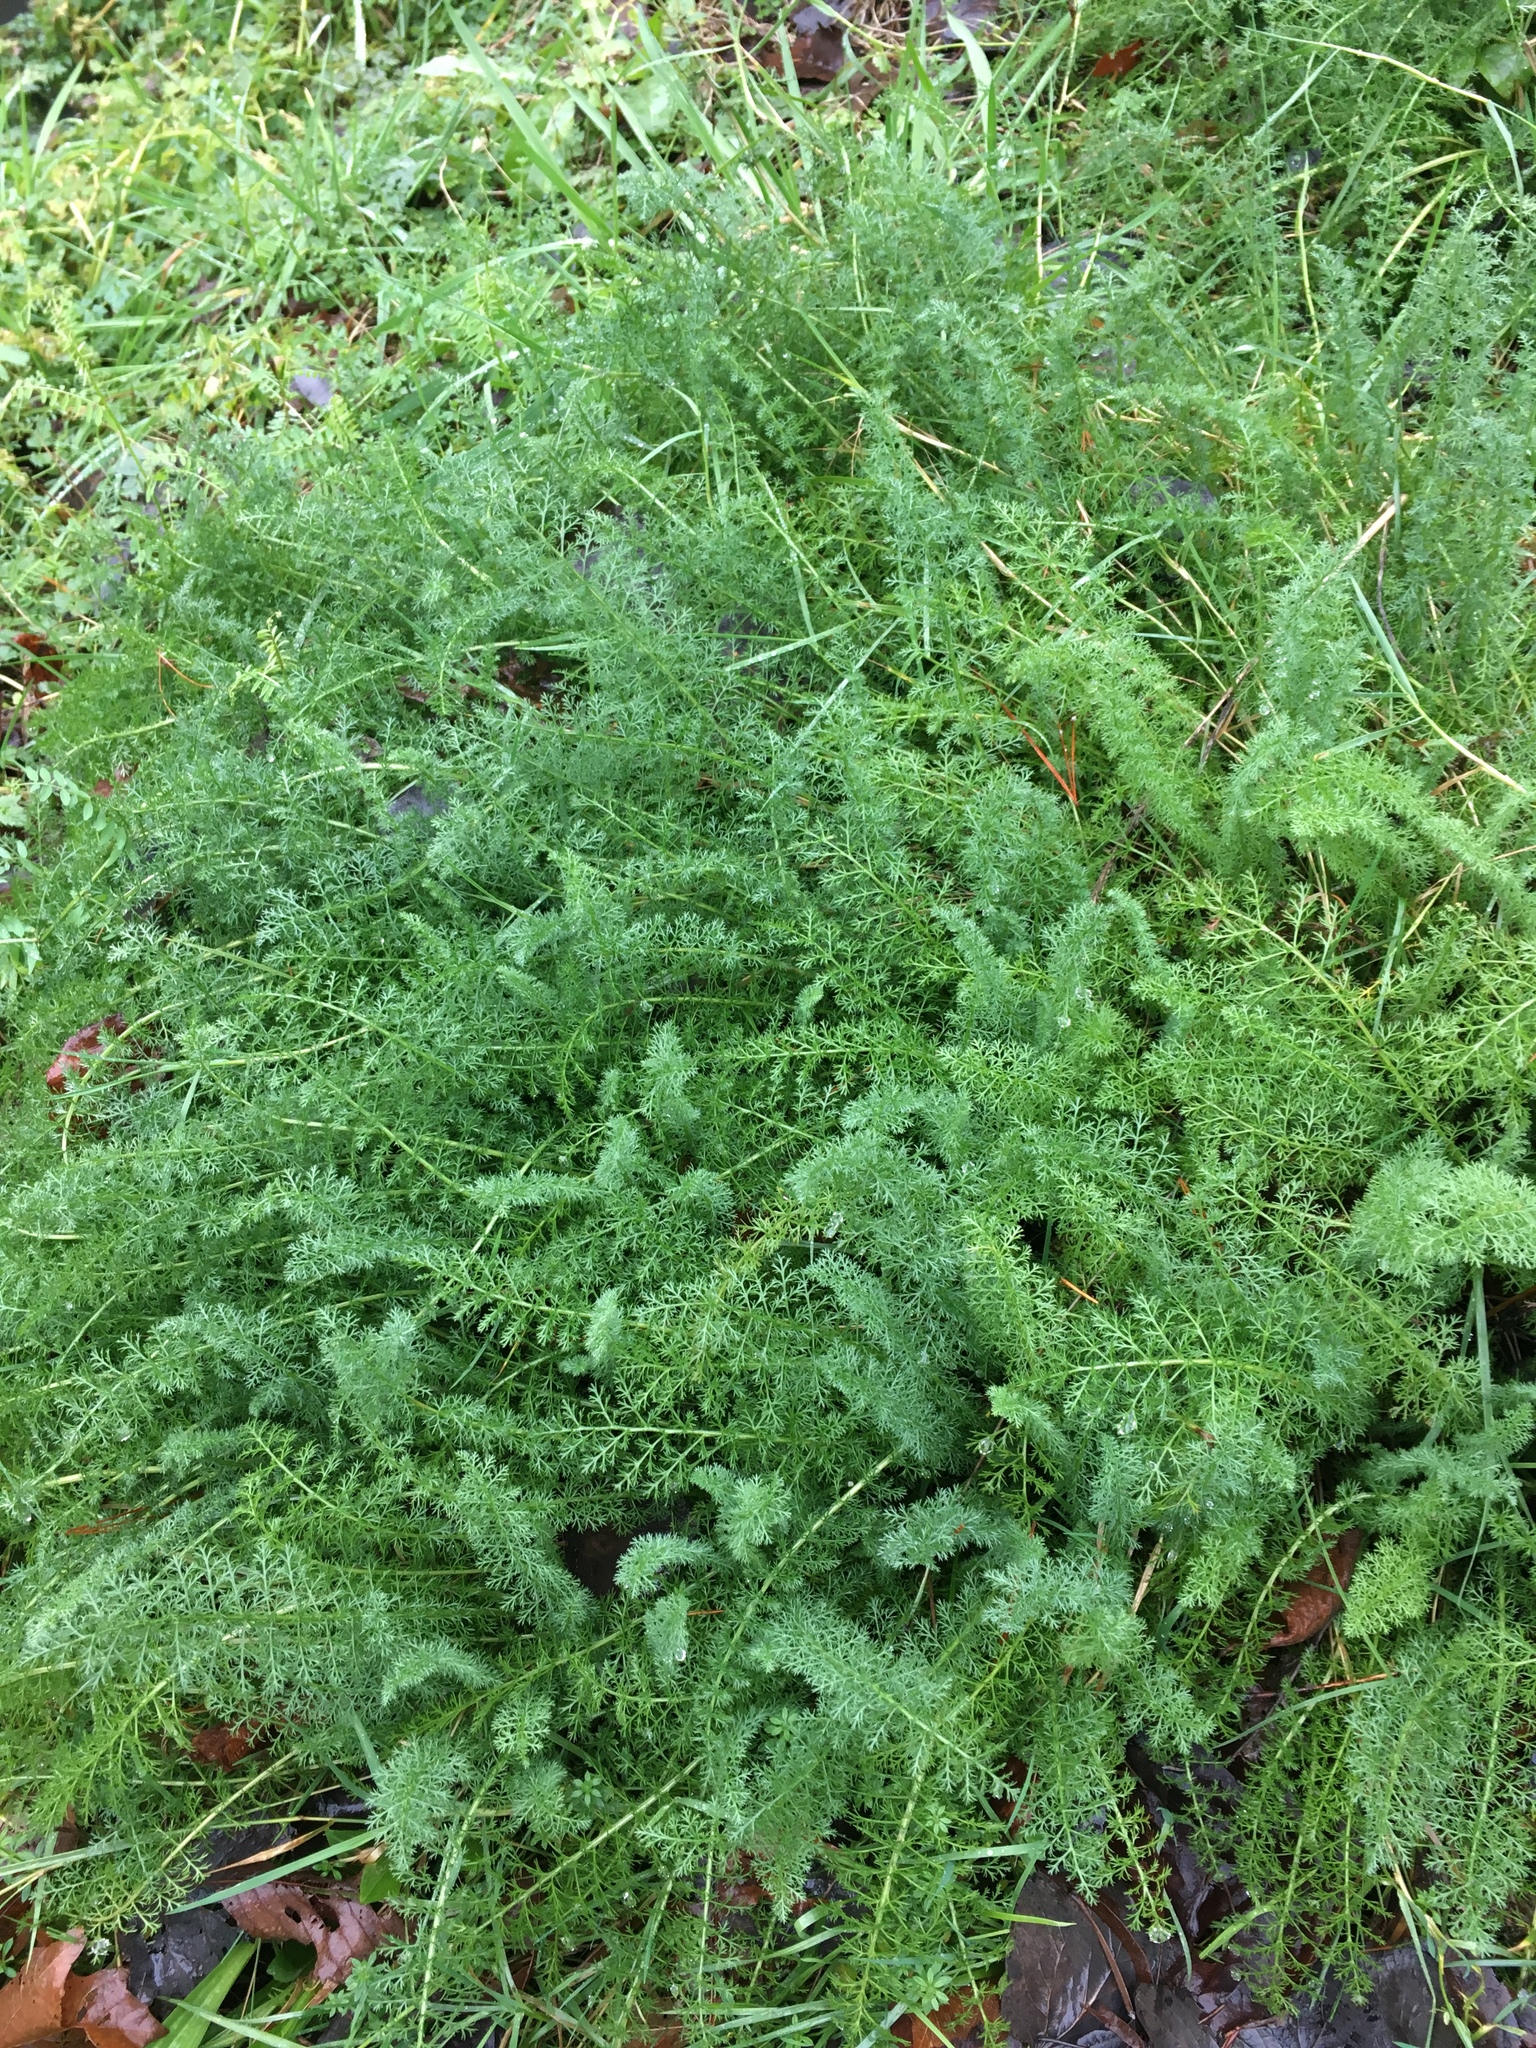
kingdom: Plantae
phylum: Tracheophyta
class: Magnoliopsida
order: Asterales
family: Asteraceae
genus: Achillea
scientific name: Achillea millefolium
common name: Yarrow
